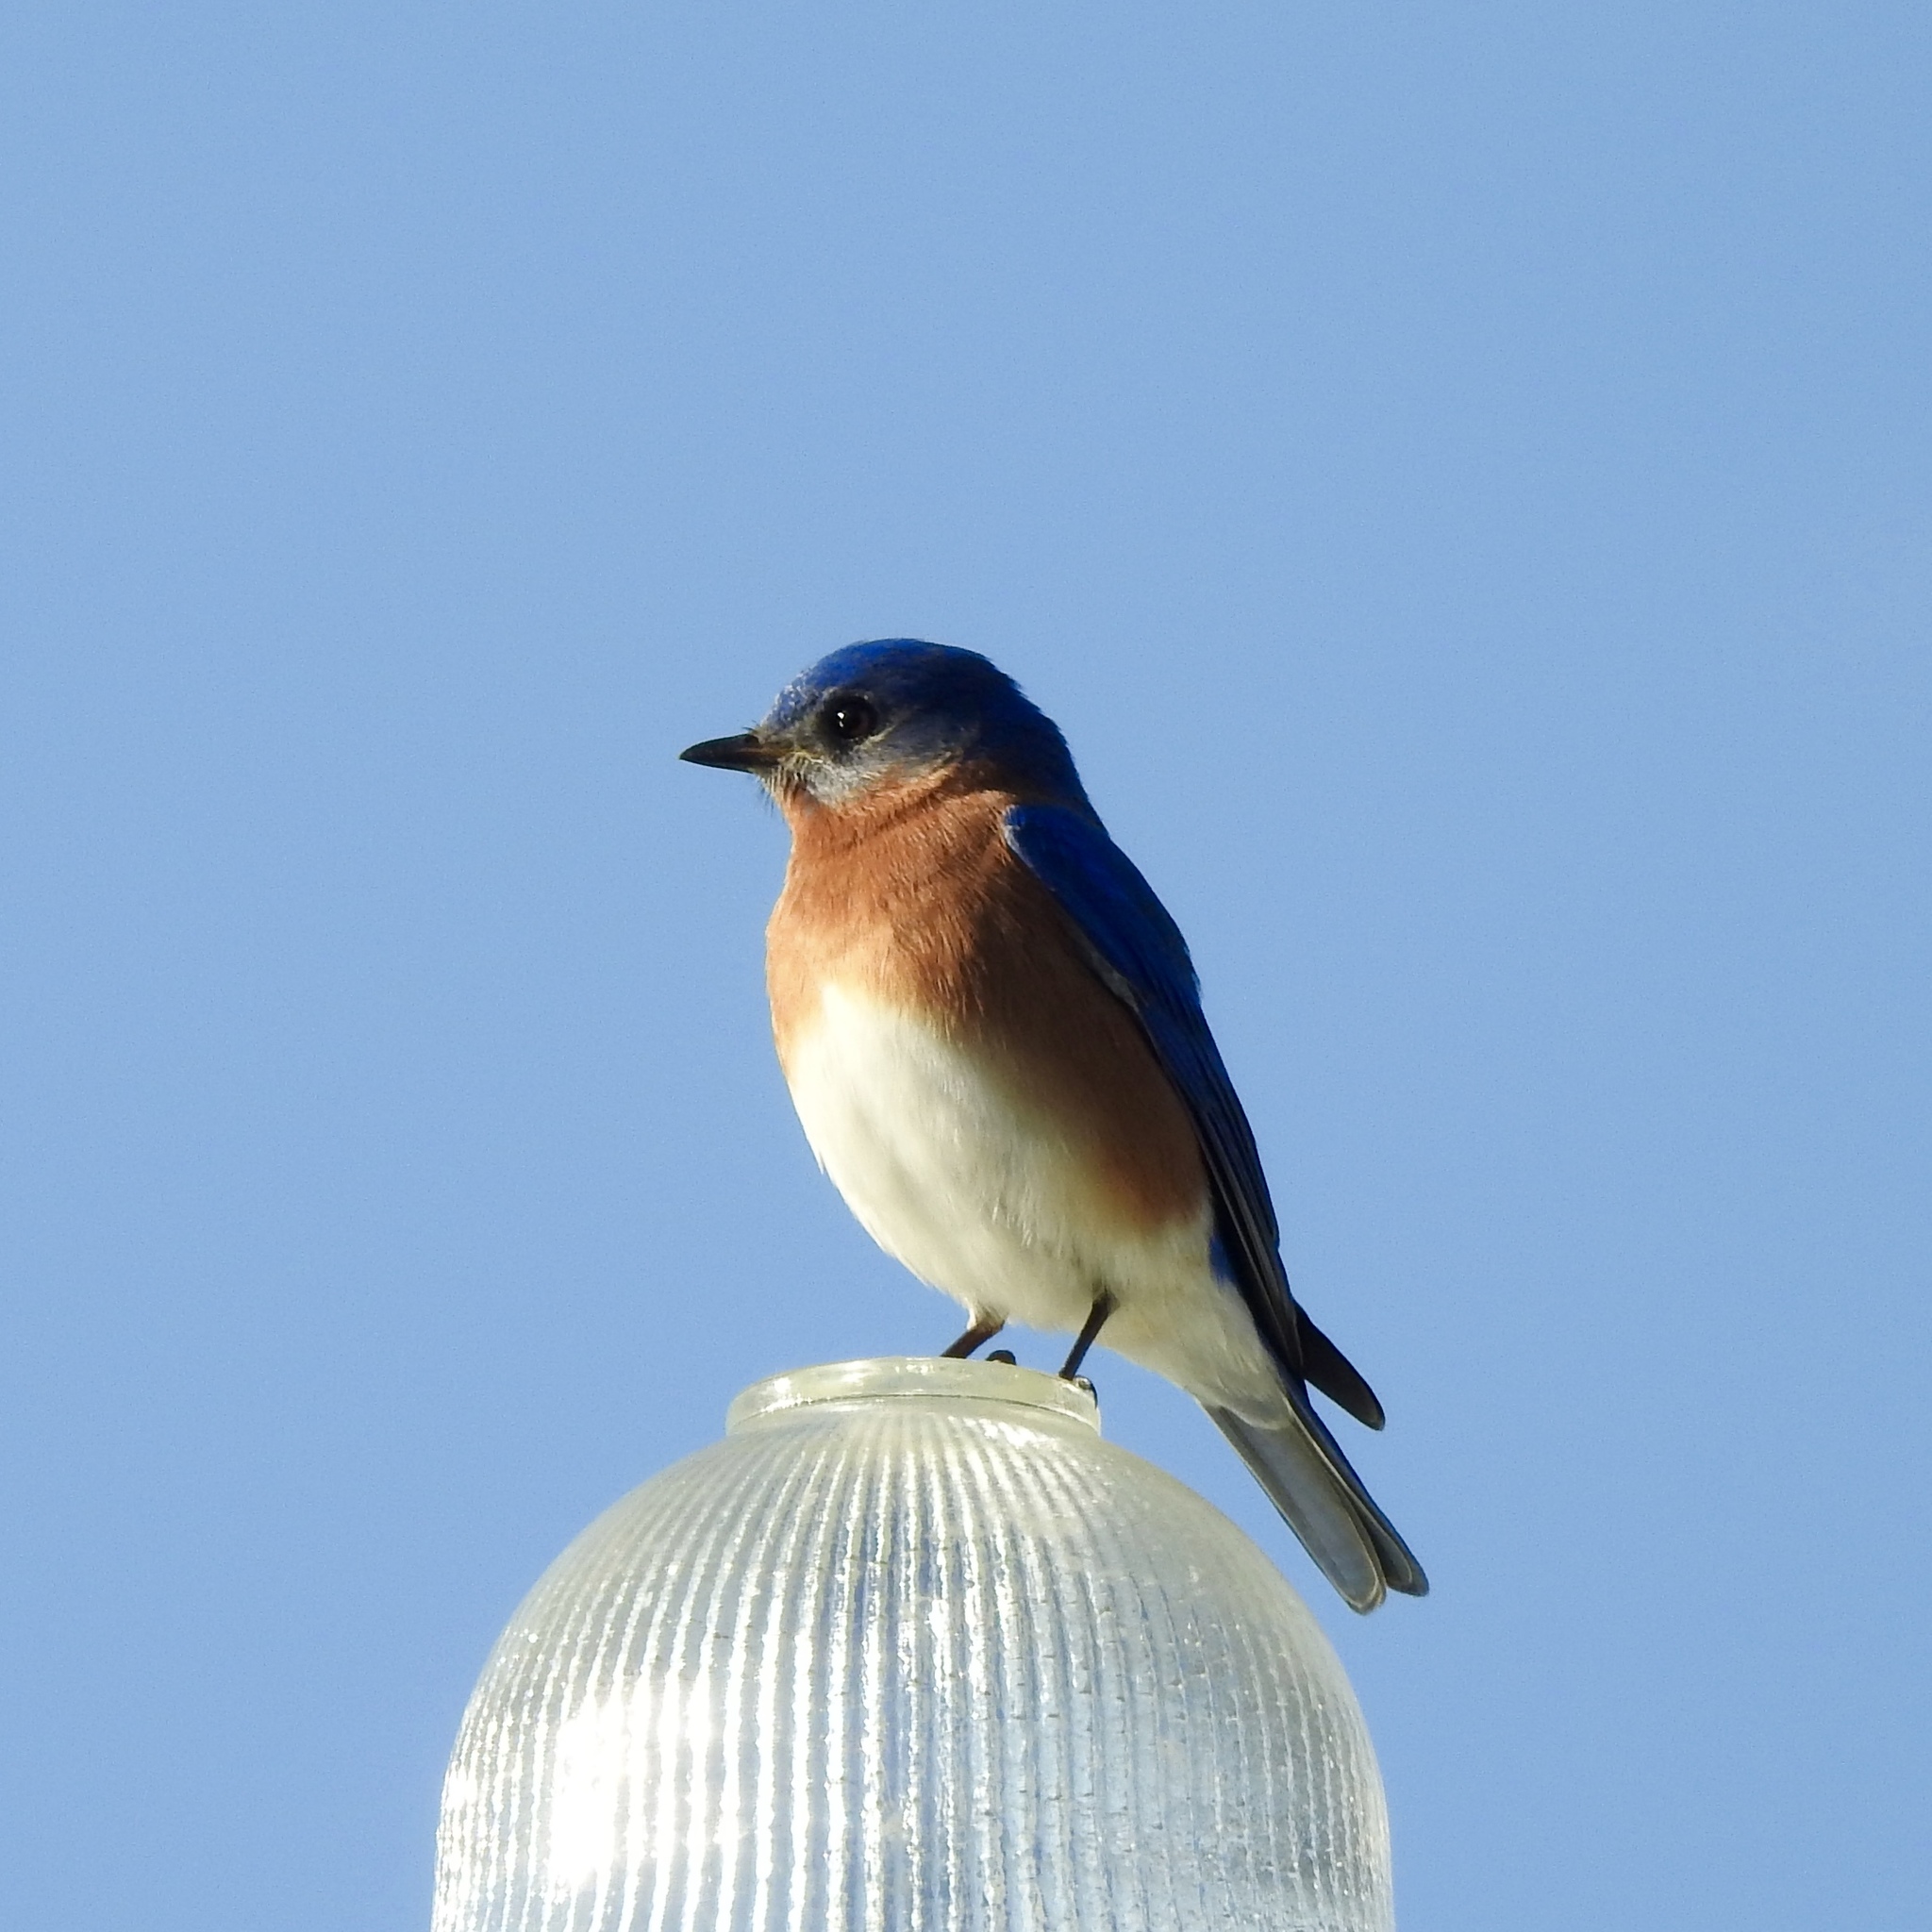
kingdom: Animalia
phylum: Chordata
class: Aves
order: Passeriformes
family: Turdidae
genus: Sialia
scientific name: Sialia sialis
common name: Eastern bluebird
